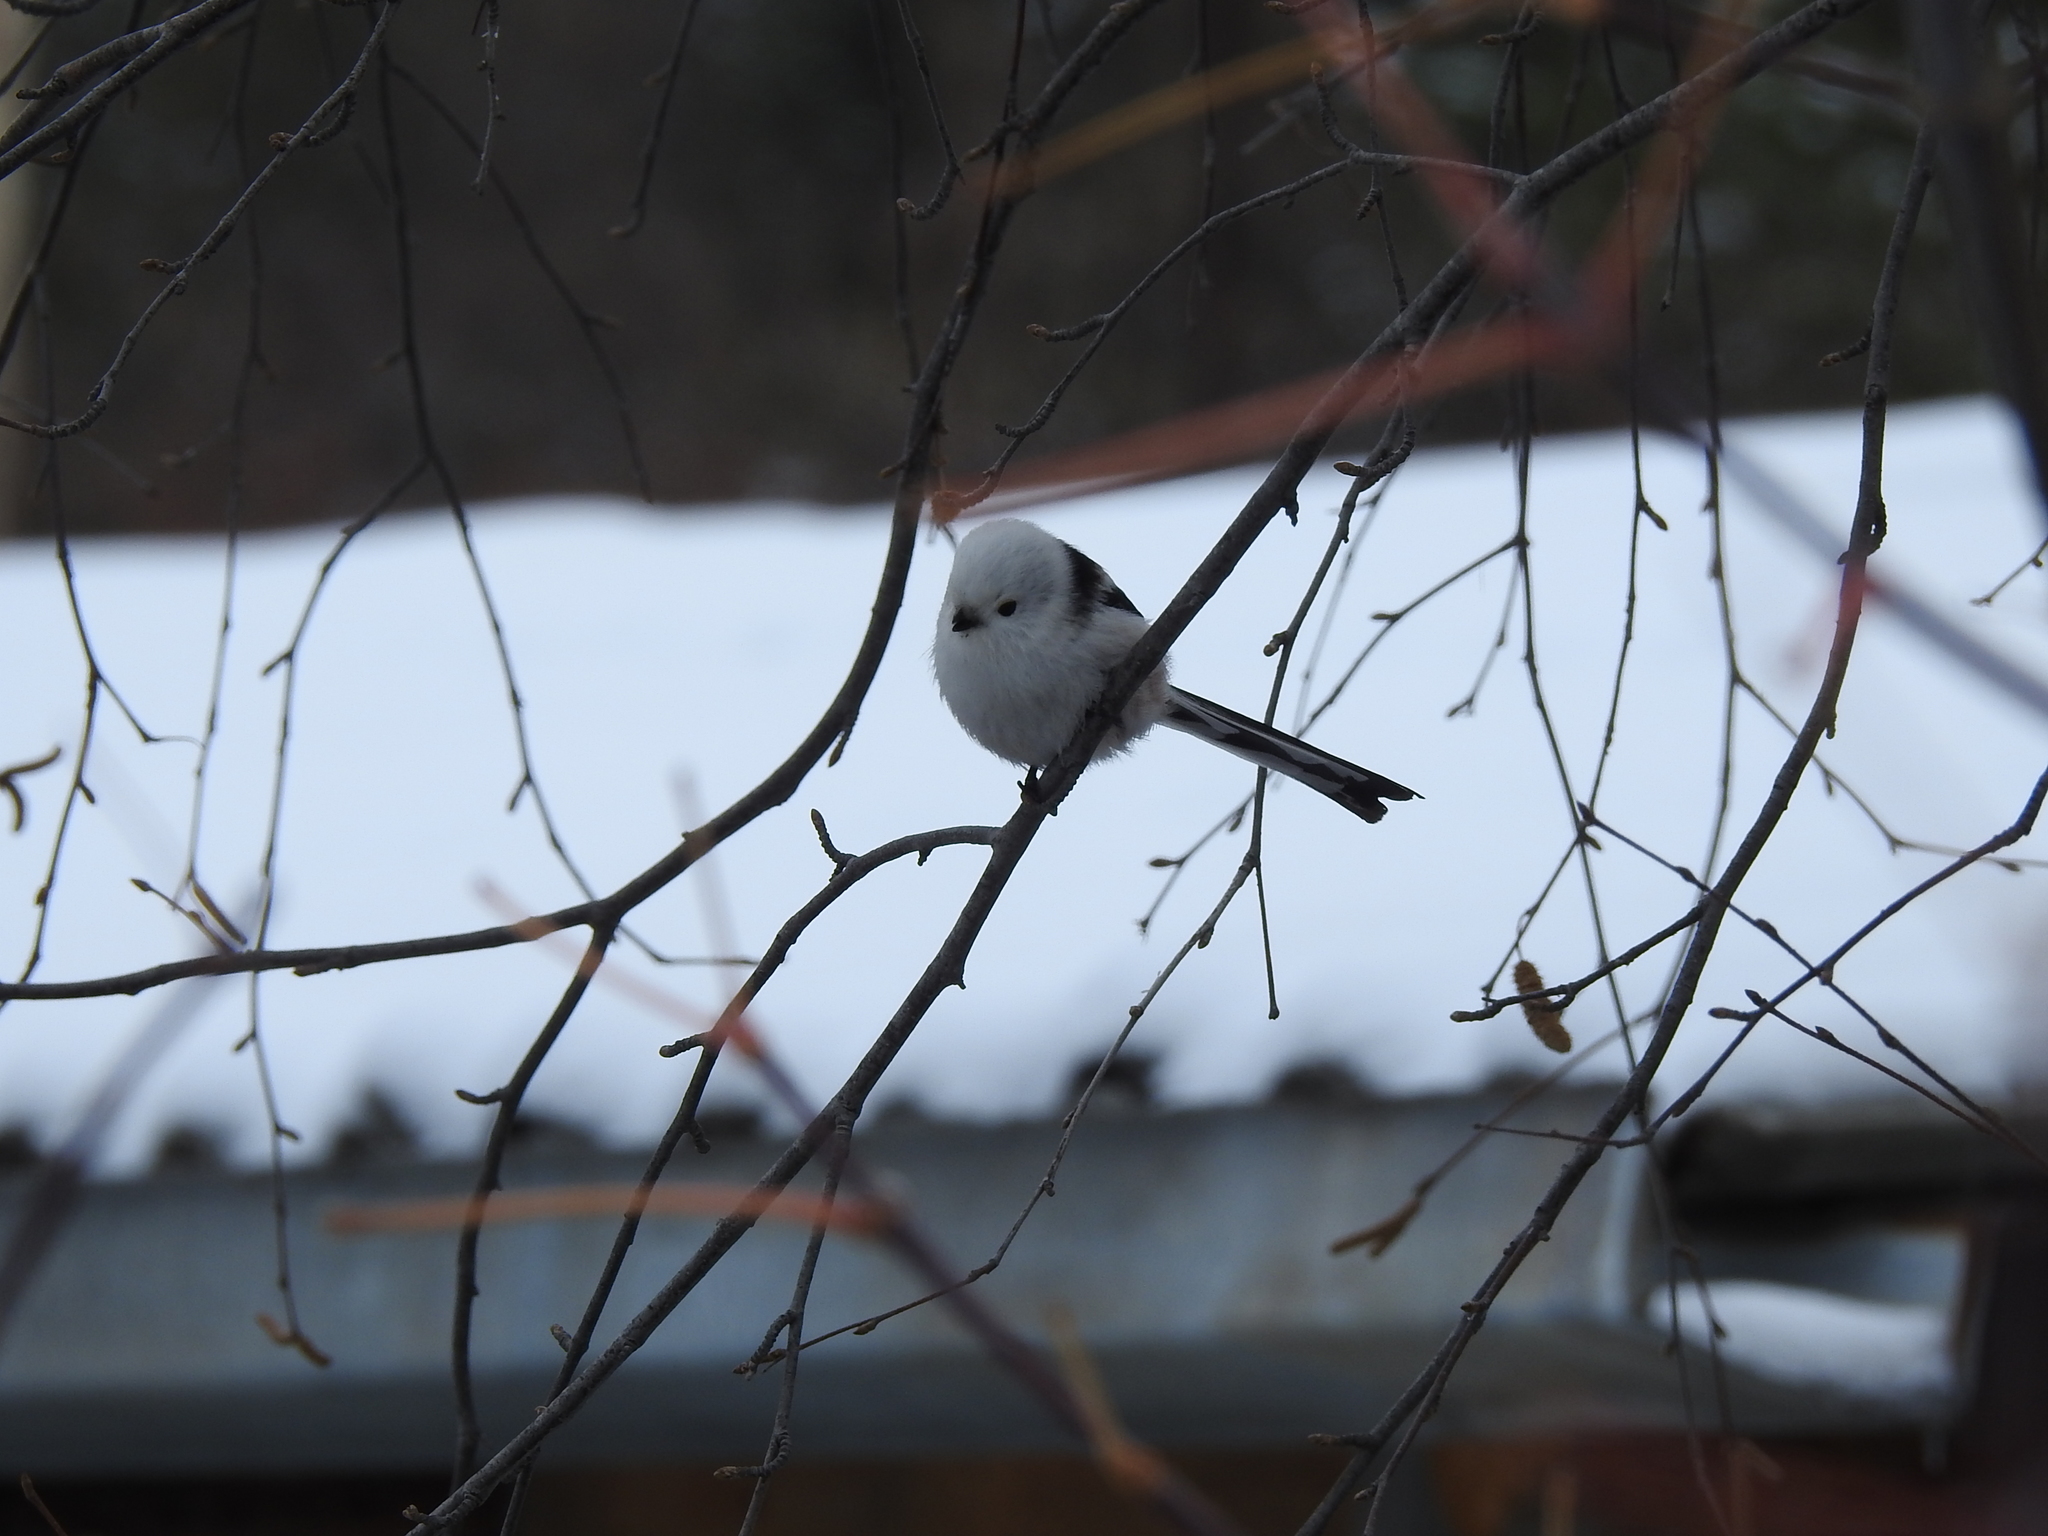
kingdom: Animalia
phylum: Chordata
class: Aves
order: Passeriformes
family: Aegithalidae
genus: Aegithalos
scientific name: Aegithalos caudatus
